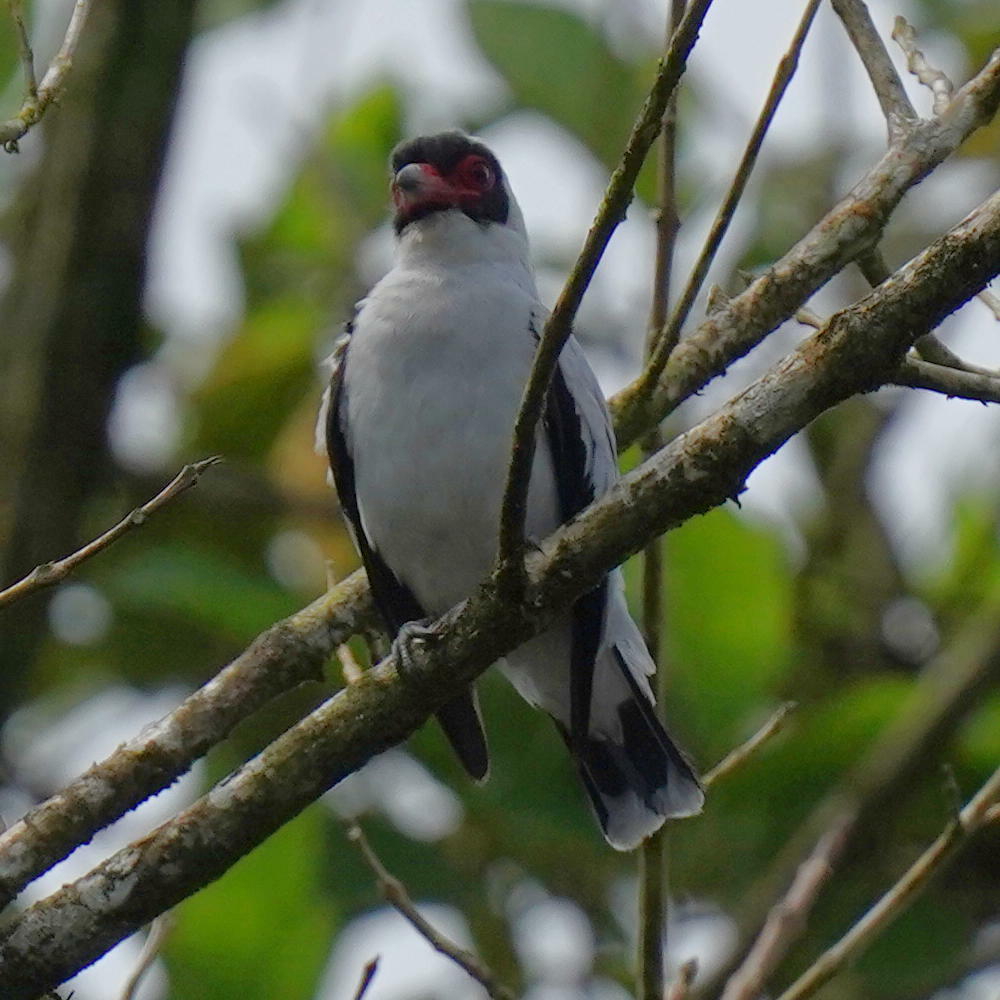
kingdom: Animalia
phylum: Chordata
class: Aves
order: Passeriformes
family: Cotingidae
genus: Tityra
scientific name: Tityra semifasciata
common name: Masked tityra
